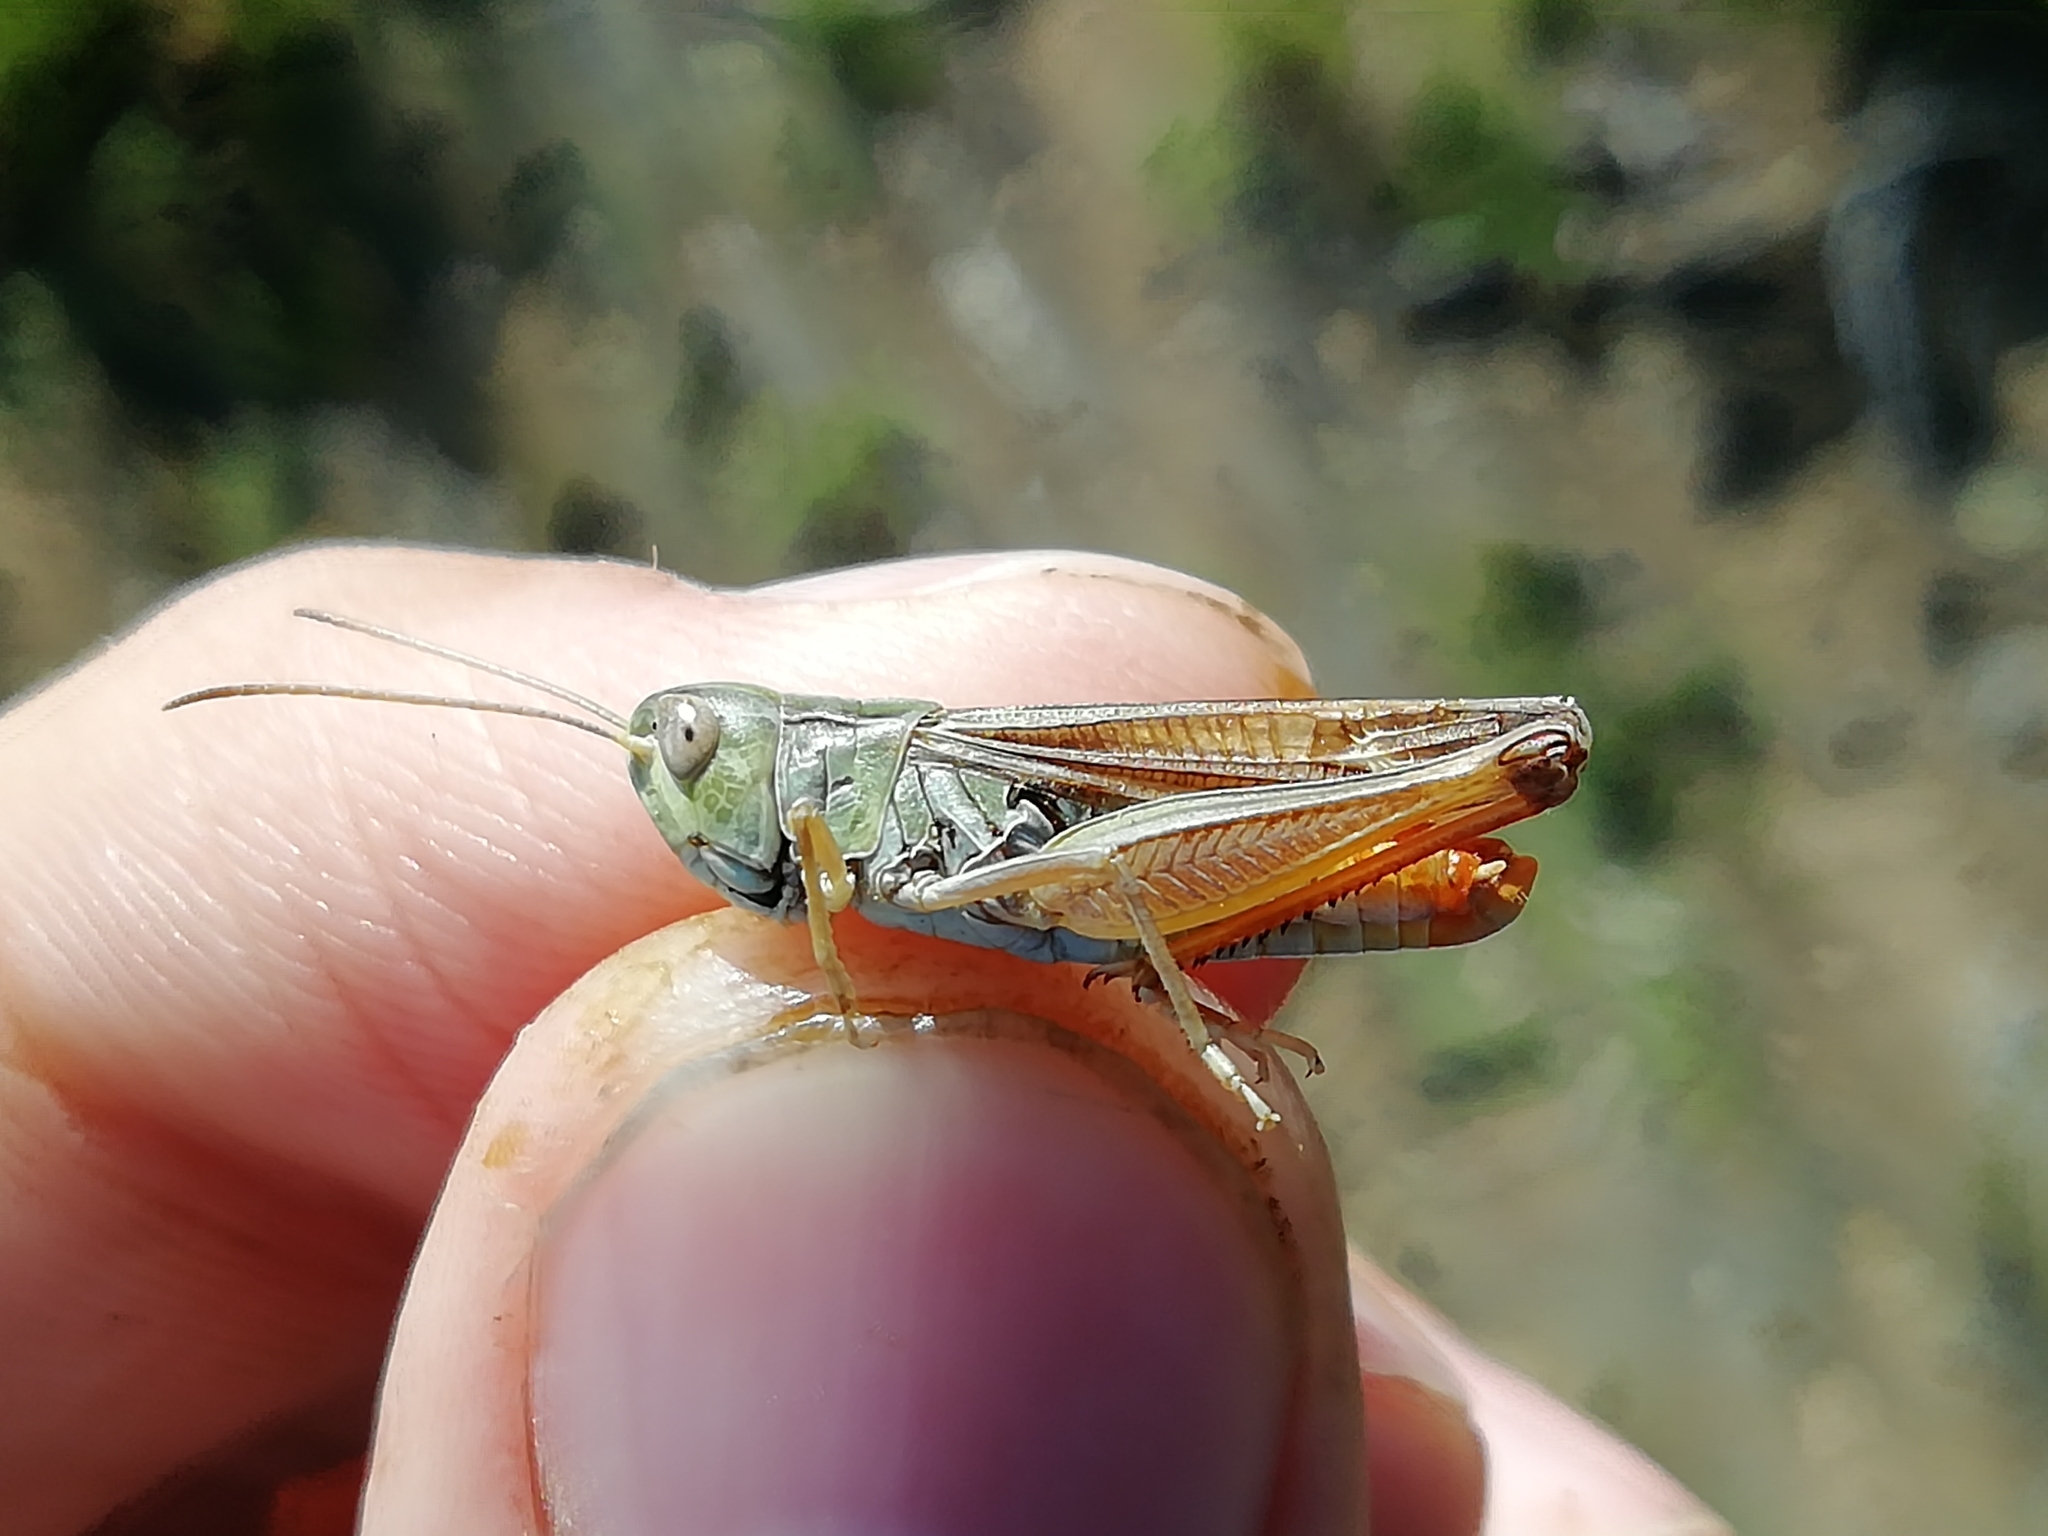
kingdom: Animalia
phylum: Arthropoda
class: Insecta
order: Orthoptera
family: Acrididae
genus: Stenobothrus
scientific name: Stenobothrus eurasius
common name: Eurasian toothed grasshopper
